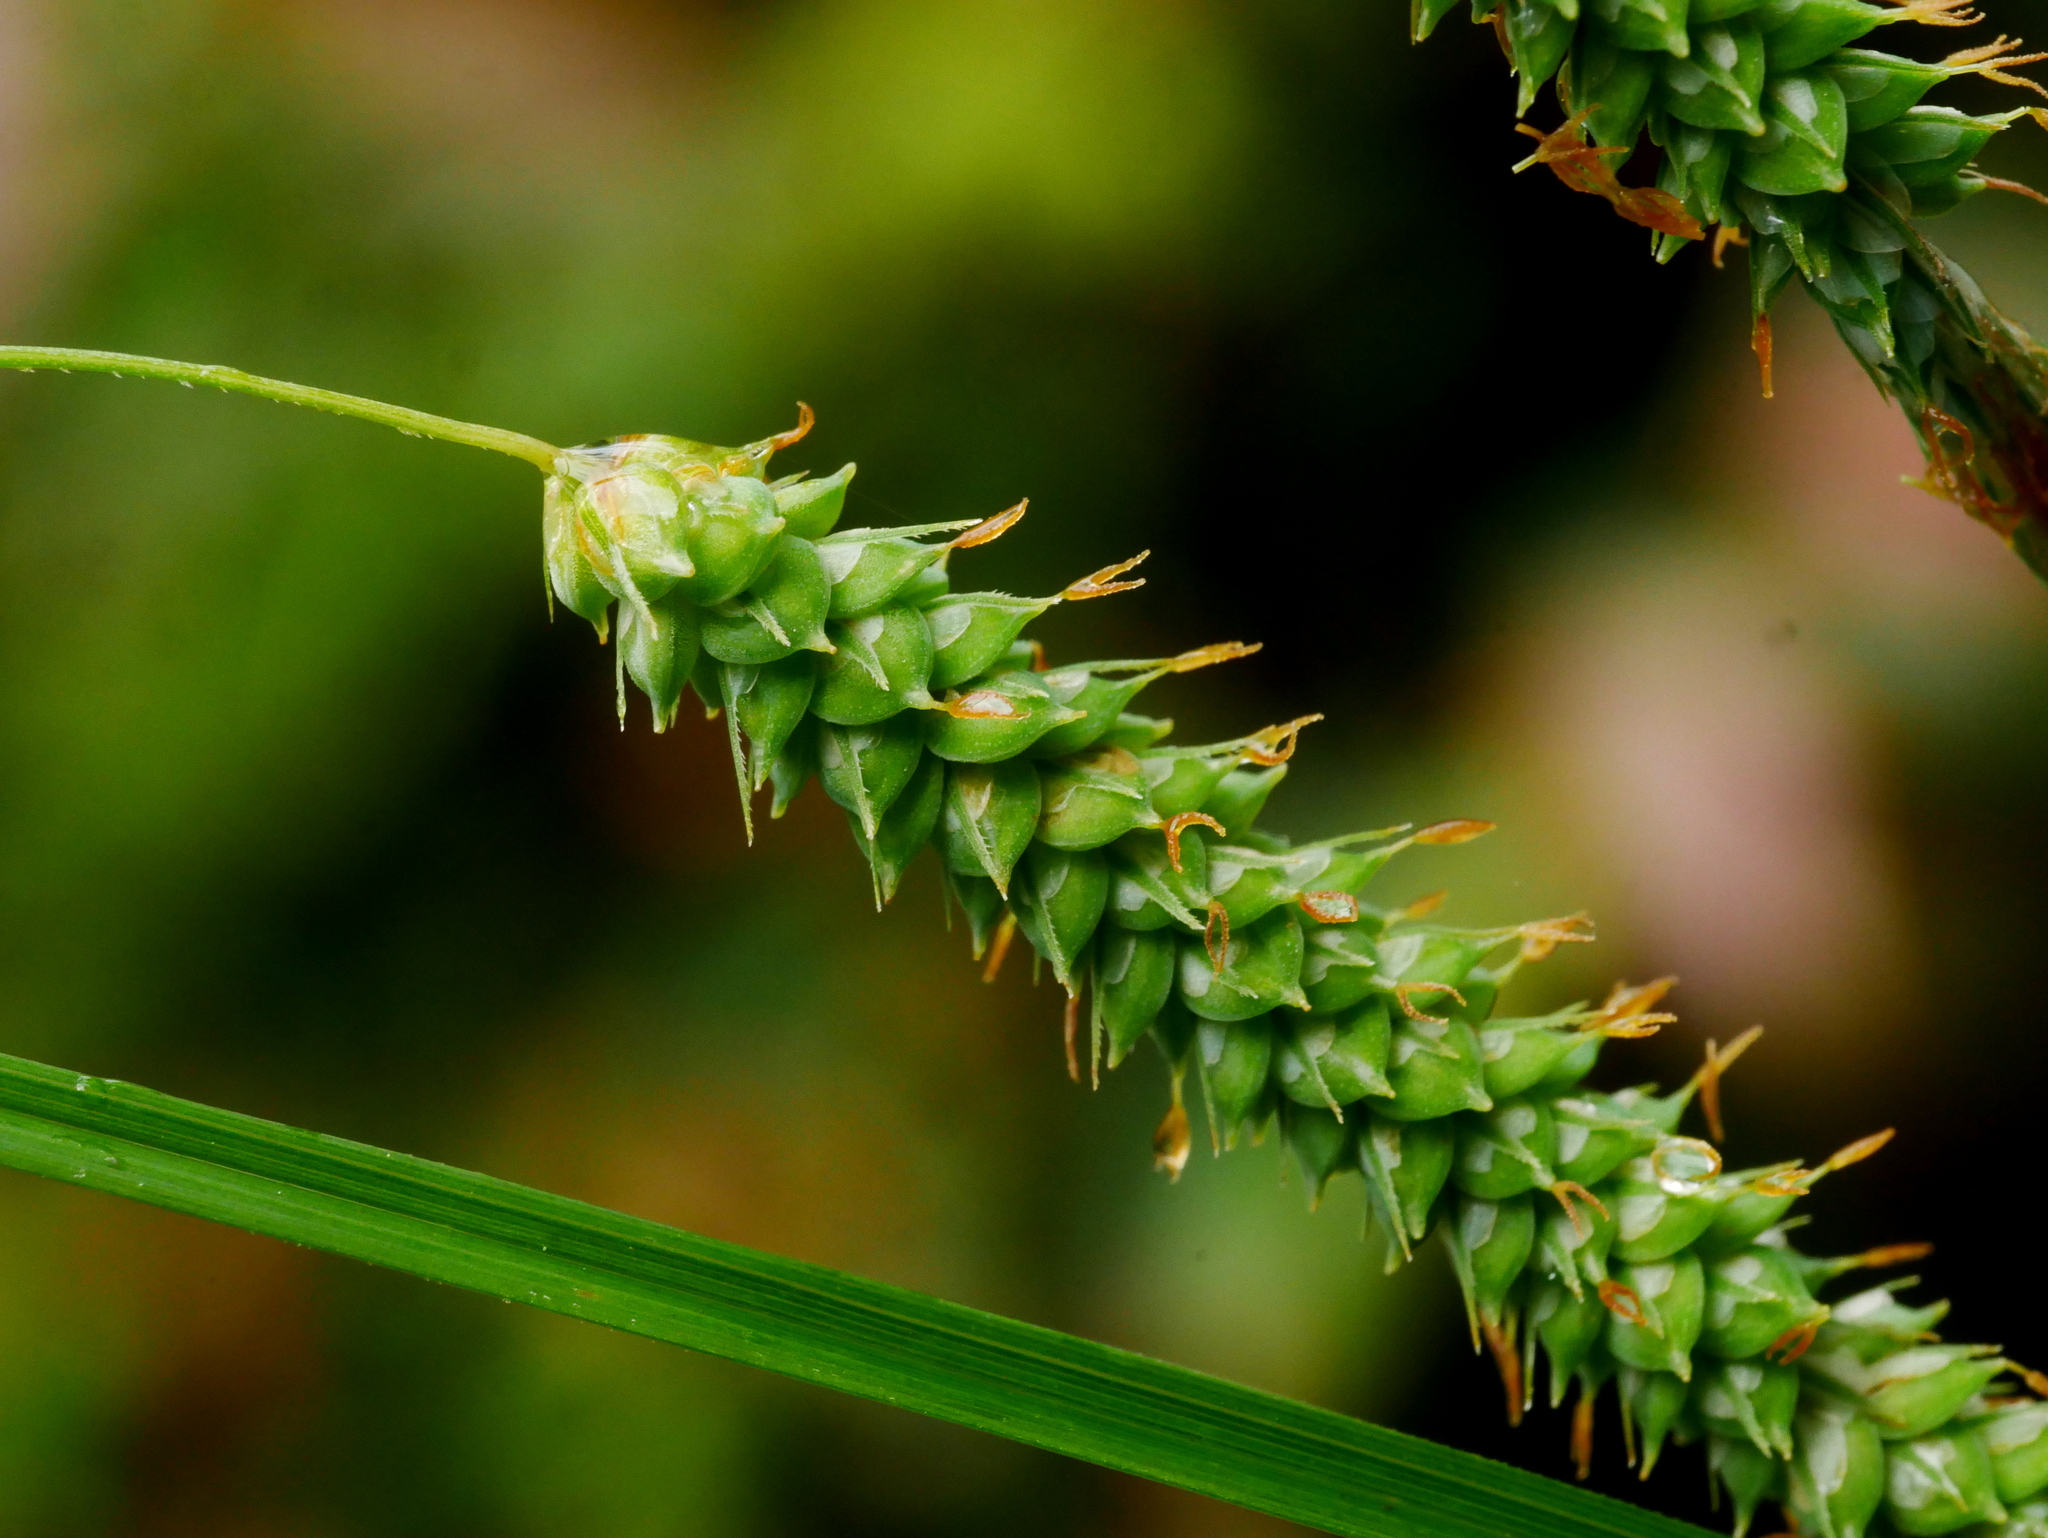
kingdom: Plantae
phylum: Tracheophyta
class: Liliopsida
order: Poales
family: Cyperaceae
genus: Carex
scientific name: Carex phacota
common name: Lakeshore sedge
